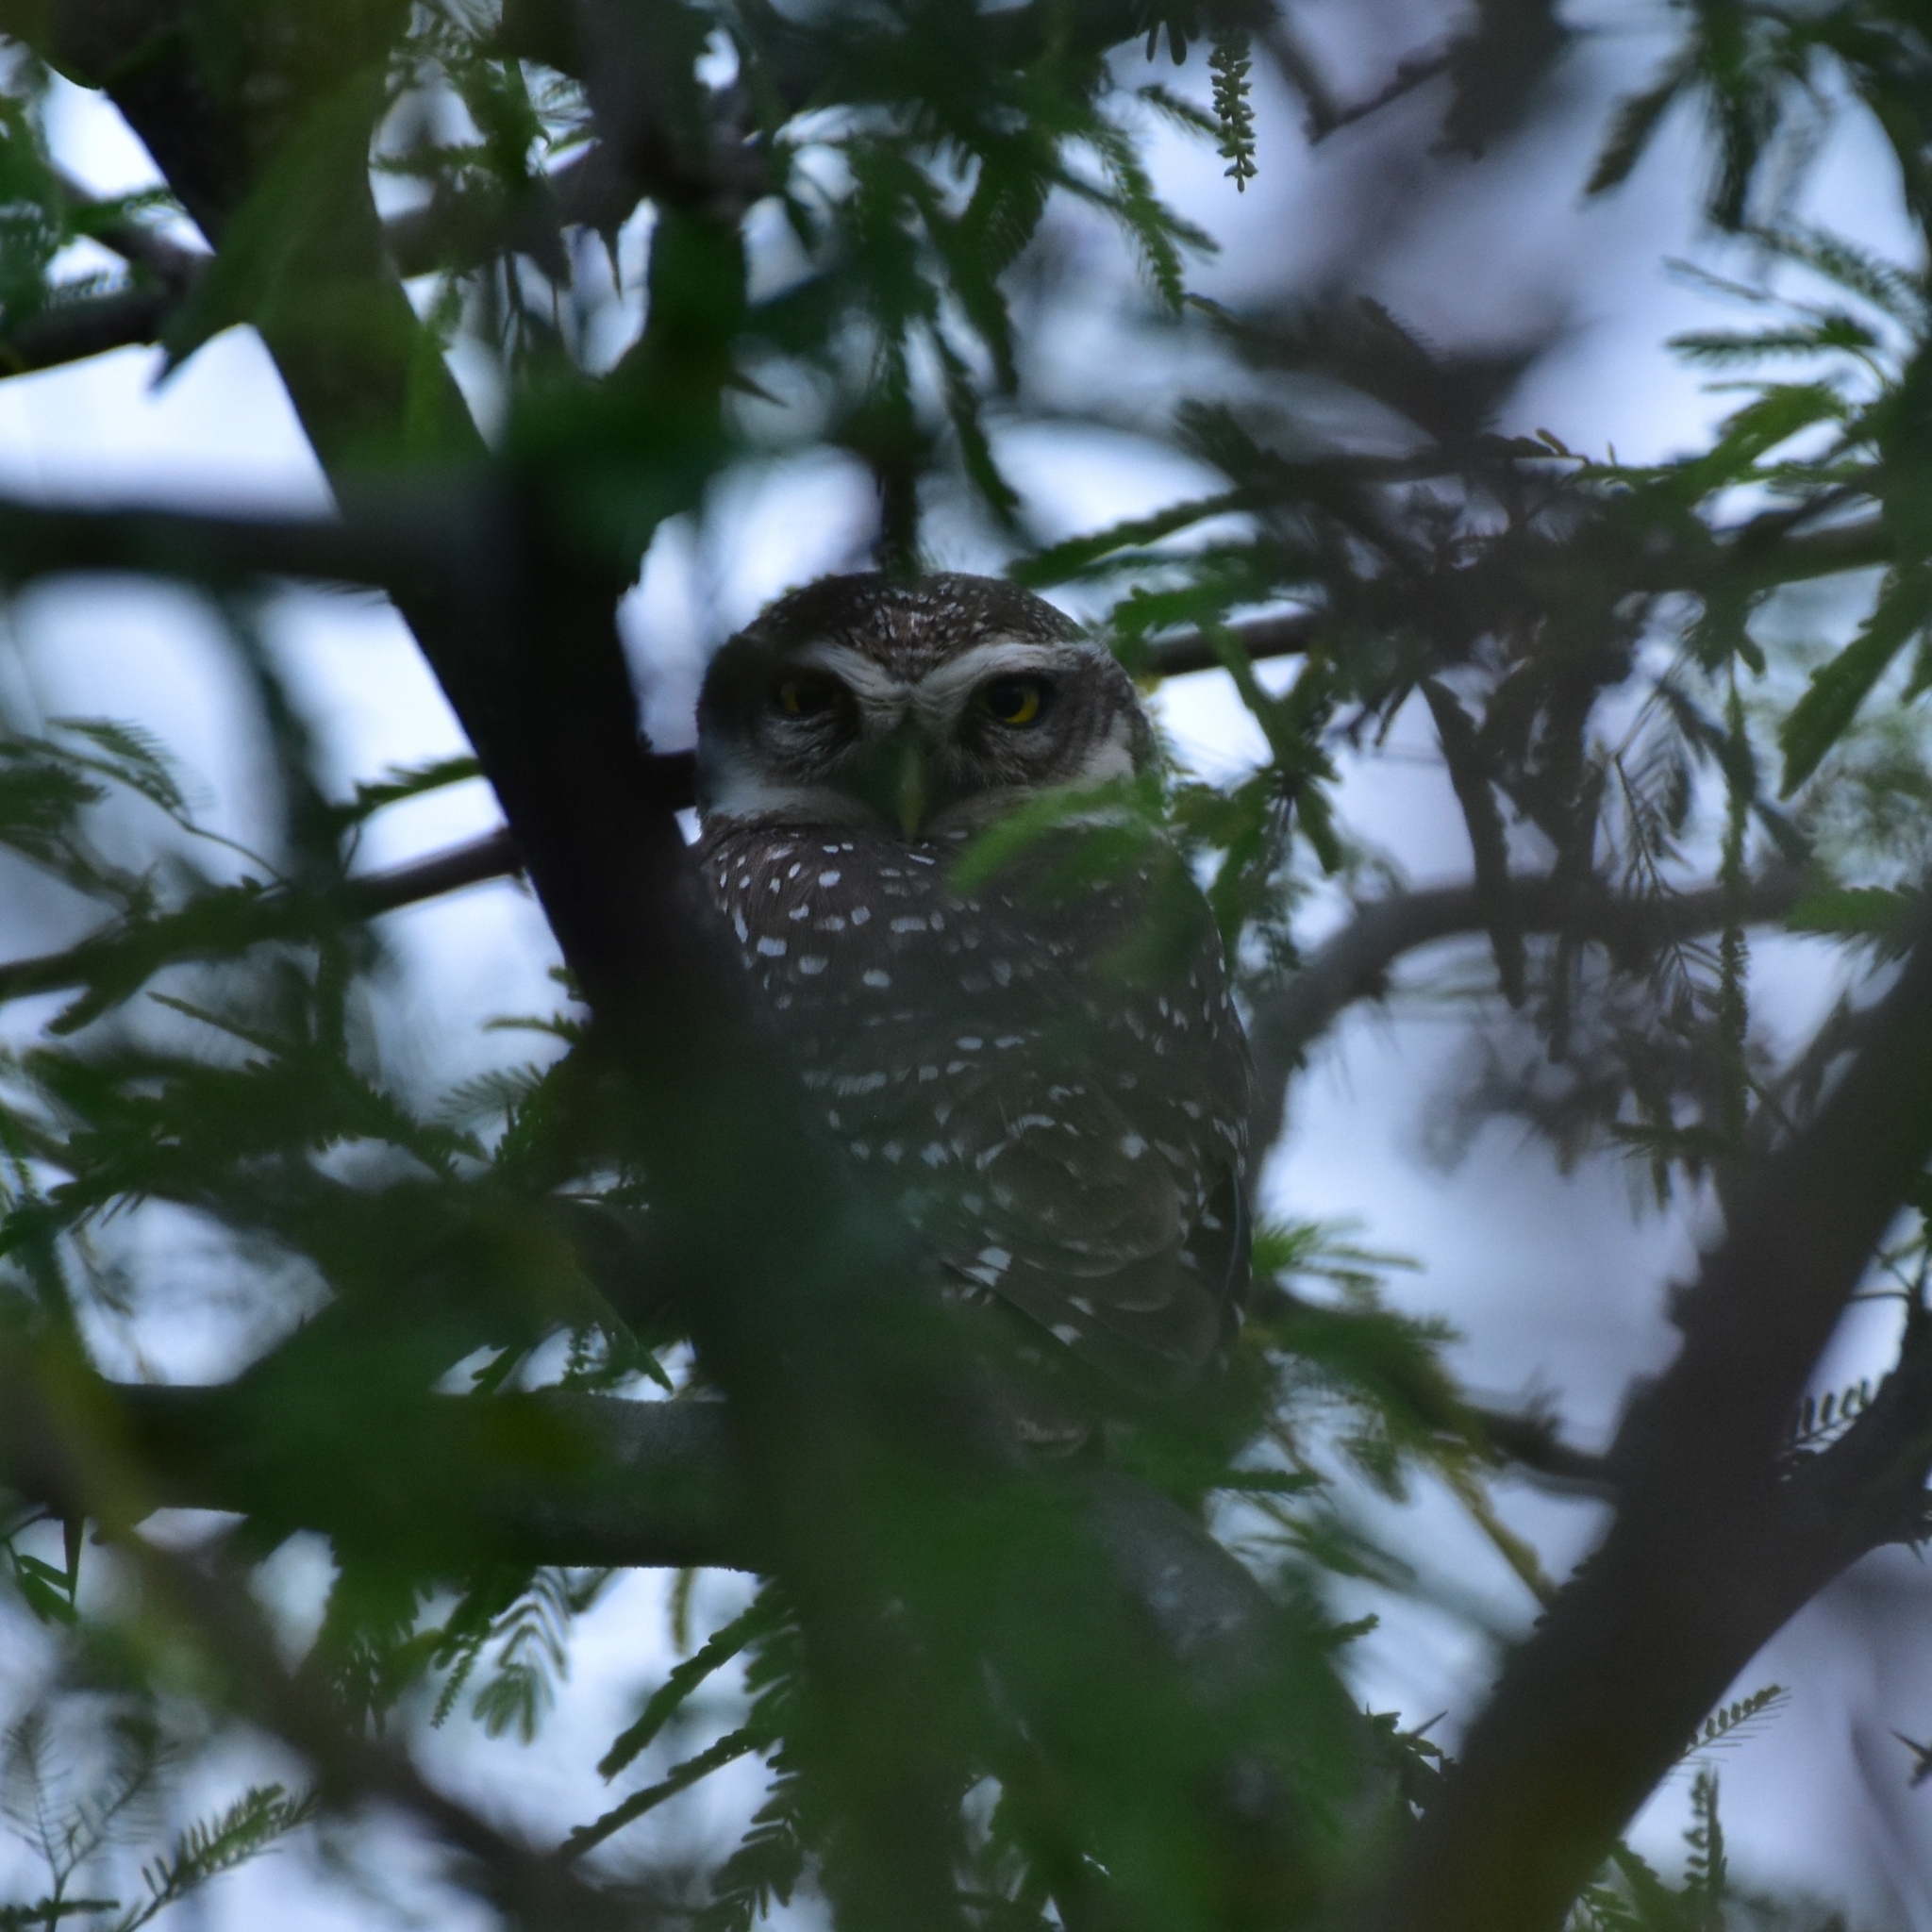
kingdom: Animalia
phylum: Chordata
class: Aves
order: Strigiformes
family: Strigidae
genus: Athene
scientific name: Athene brama
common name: Spotted owlet
